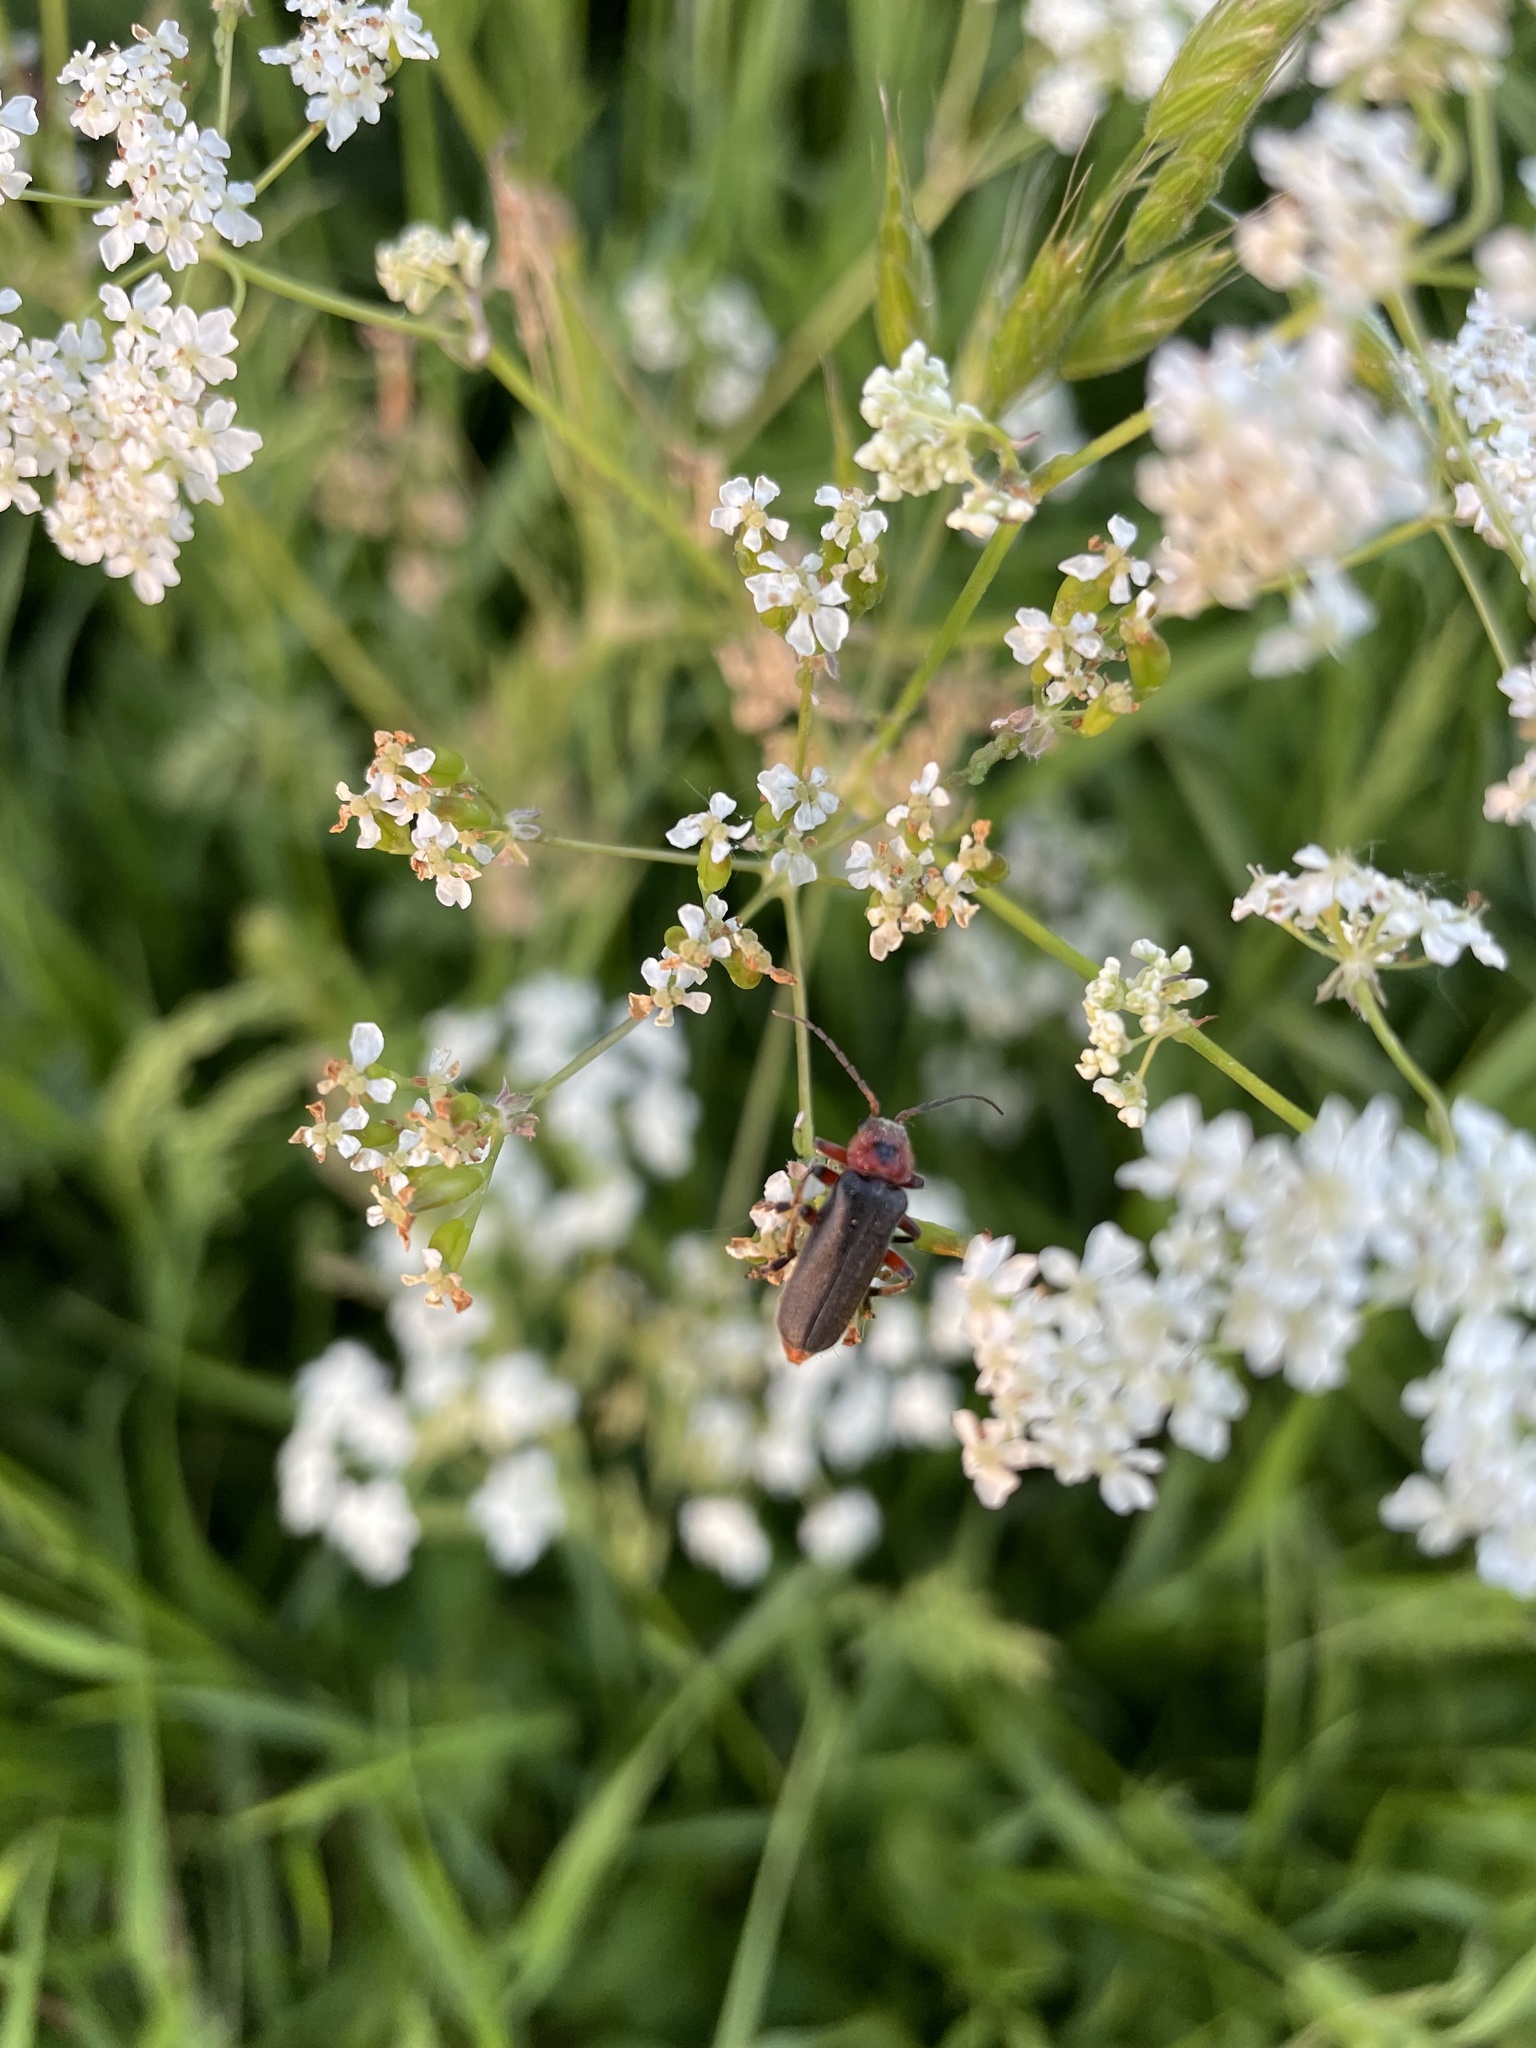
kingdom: Animalia
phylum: Arthropoda
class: Insecta
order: Coleoptera
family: Cantharidae
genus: Cantharis
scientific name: Cantharis rustica
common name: Soldier beetle
